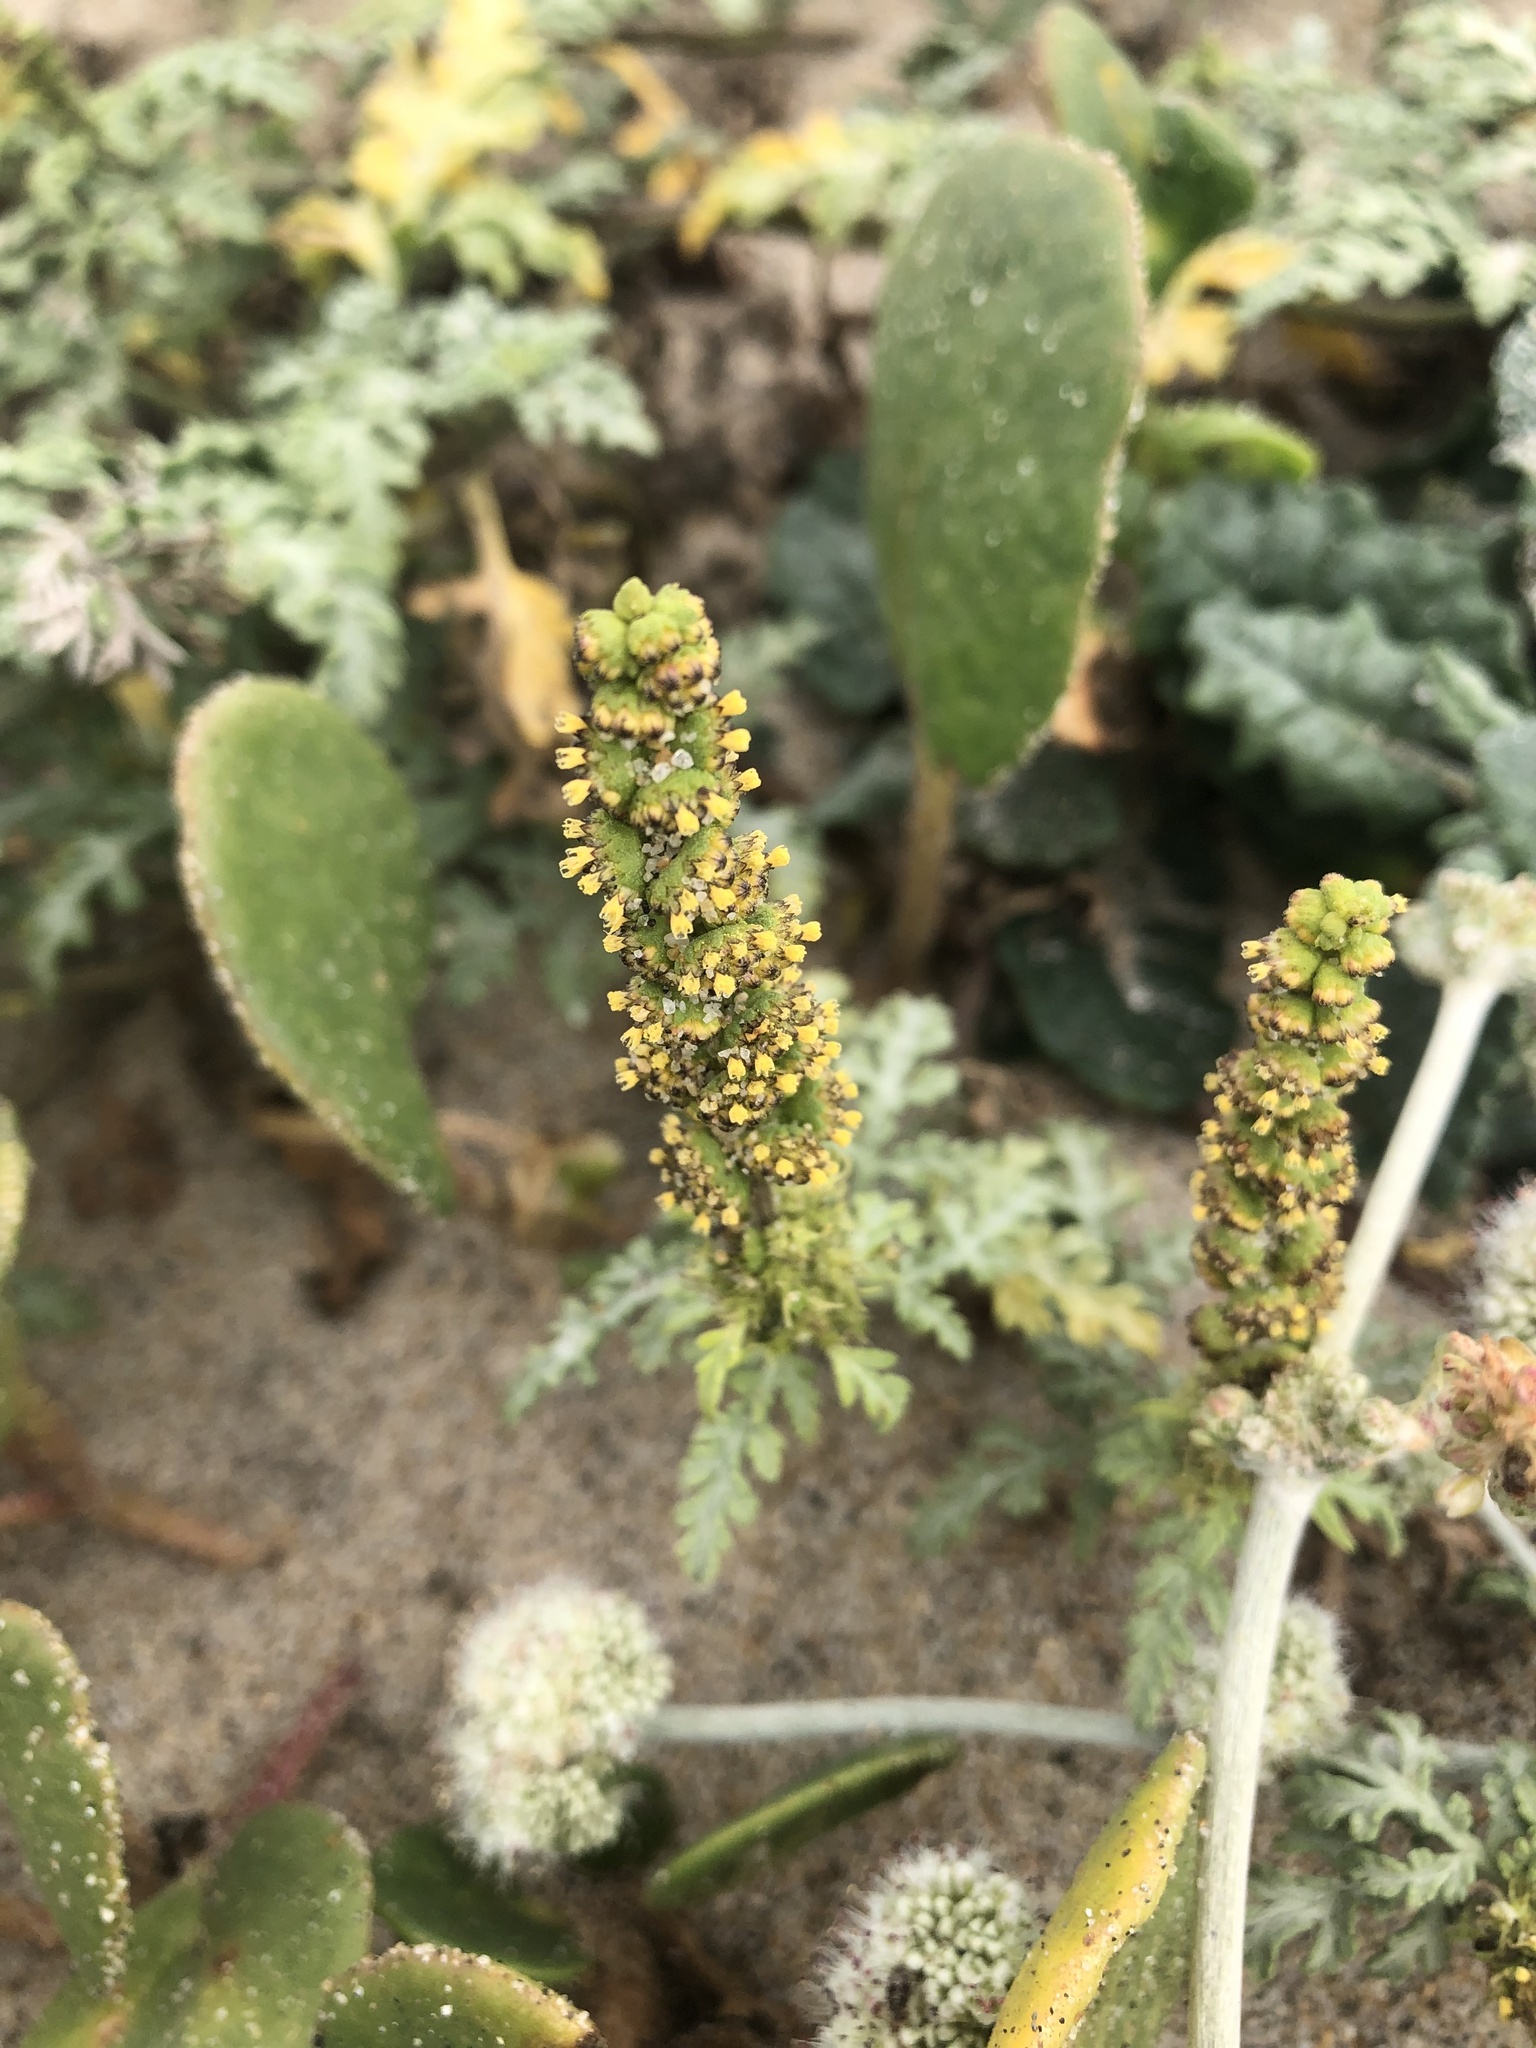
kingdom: Plantae
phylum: Tracheophyta
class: Magnoliopsida
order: Asterales
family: Asteraceae
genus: Ambrosia
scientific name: Ambrosia chamissonis
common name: Beachbur
